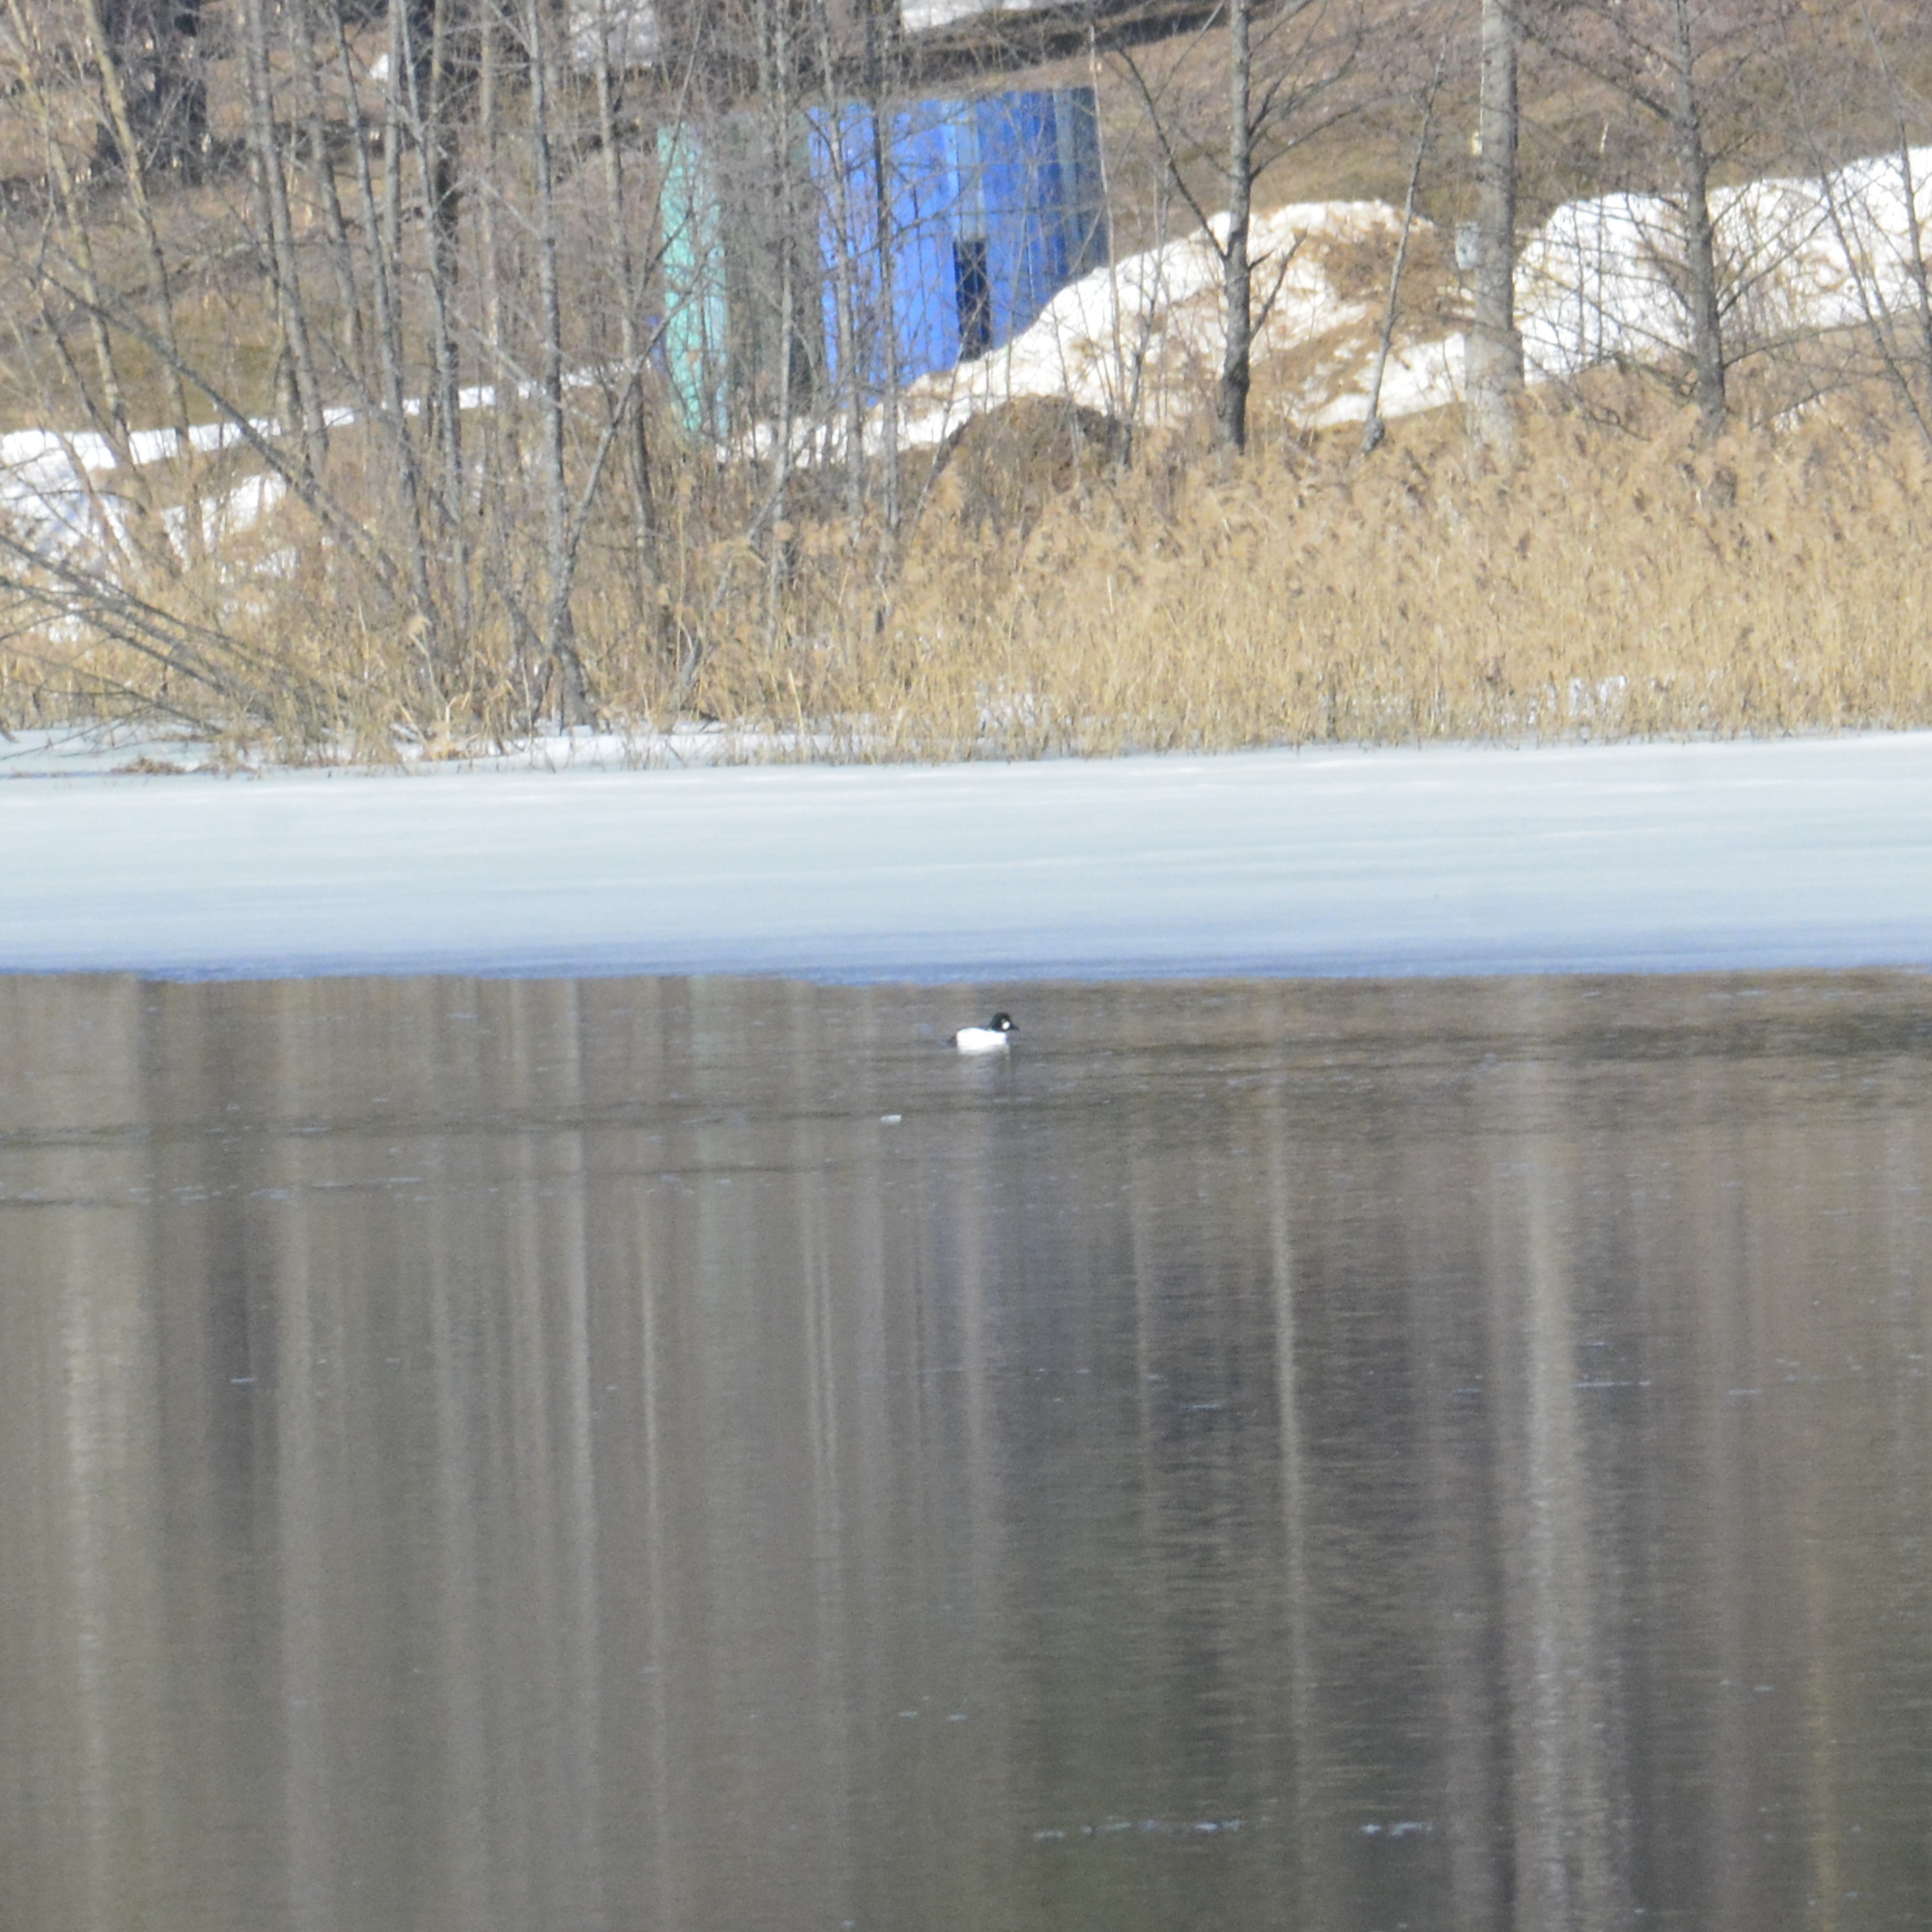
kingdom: Animalia
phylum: Chordata
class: Aves
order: Anseriformes
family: Anatidae
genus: Bucephala
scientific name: Bucephala clangula
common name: Common goldeneye
